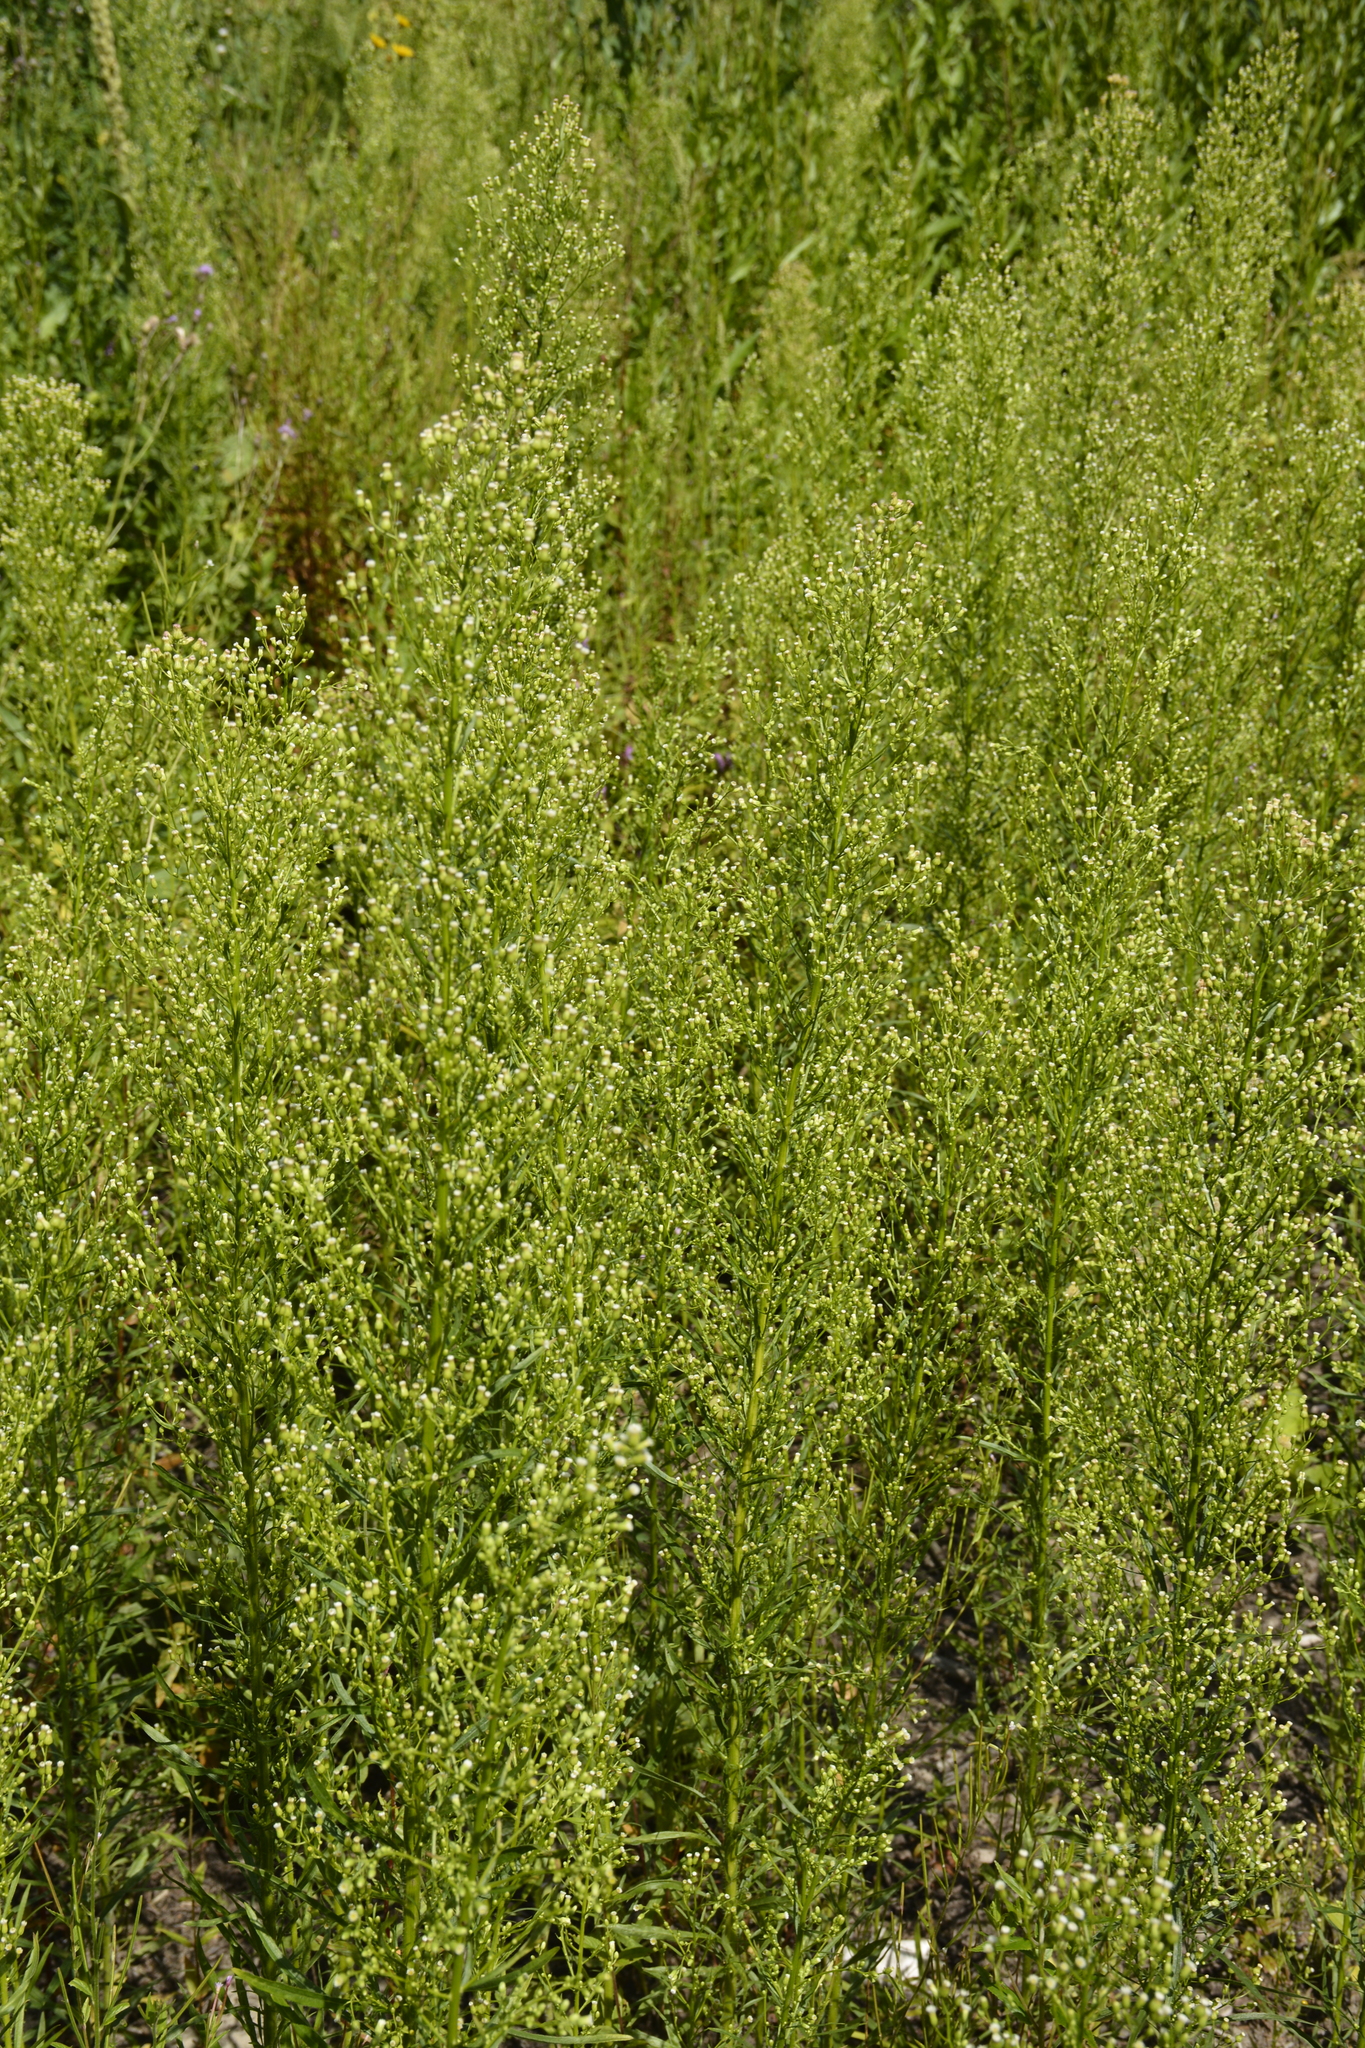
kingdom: Plantae
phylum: Tracheophyta
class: Magnoliopsida
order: Asterales
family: Asteraceae
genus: Erigeron
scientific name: Erigeron canadensis
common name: Canadian fleabane
